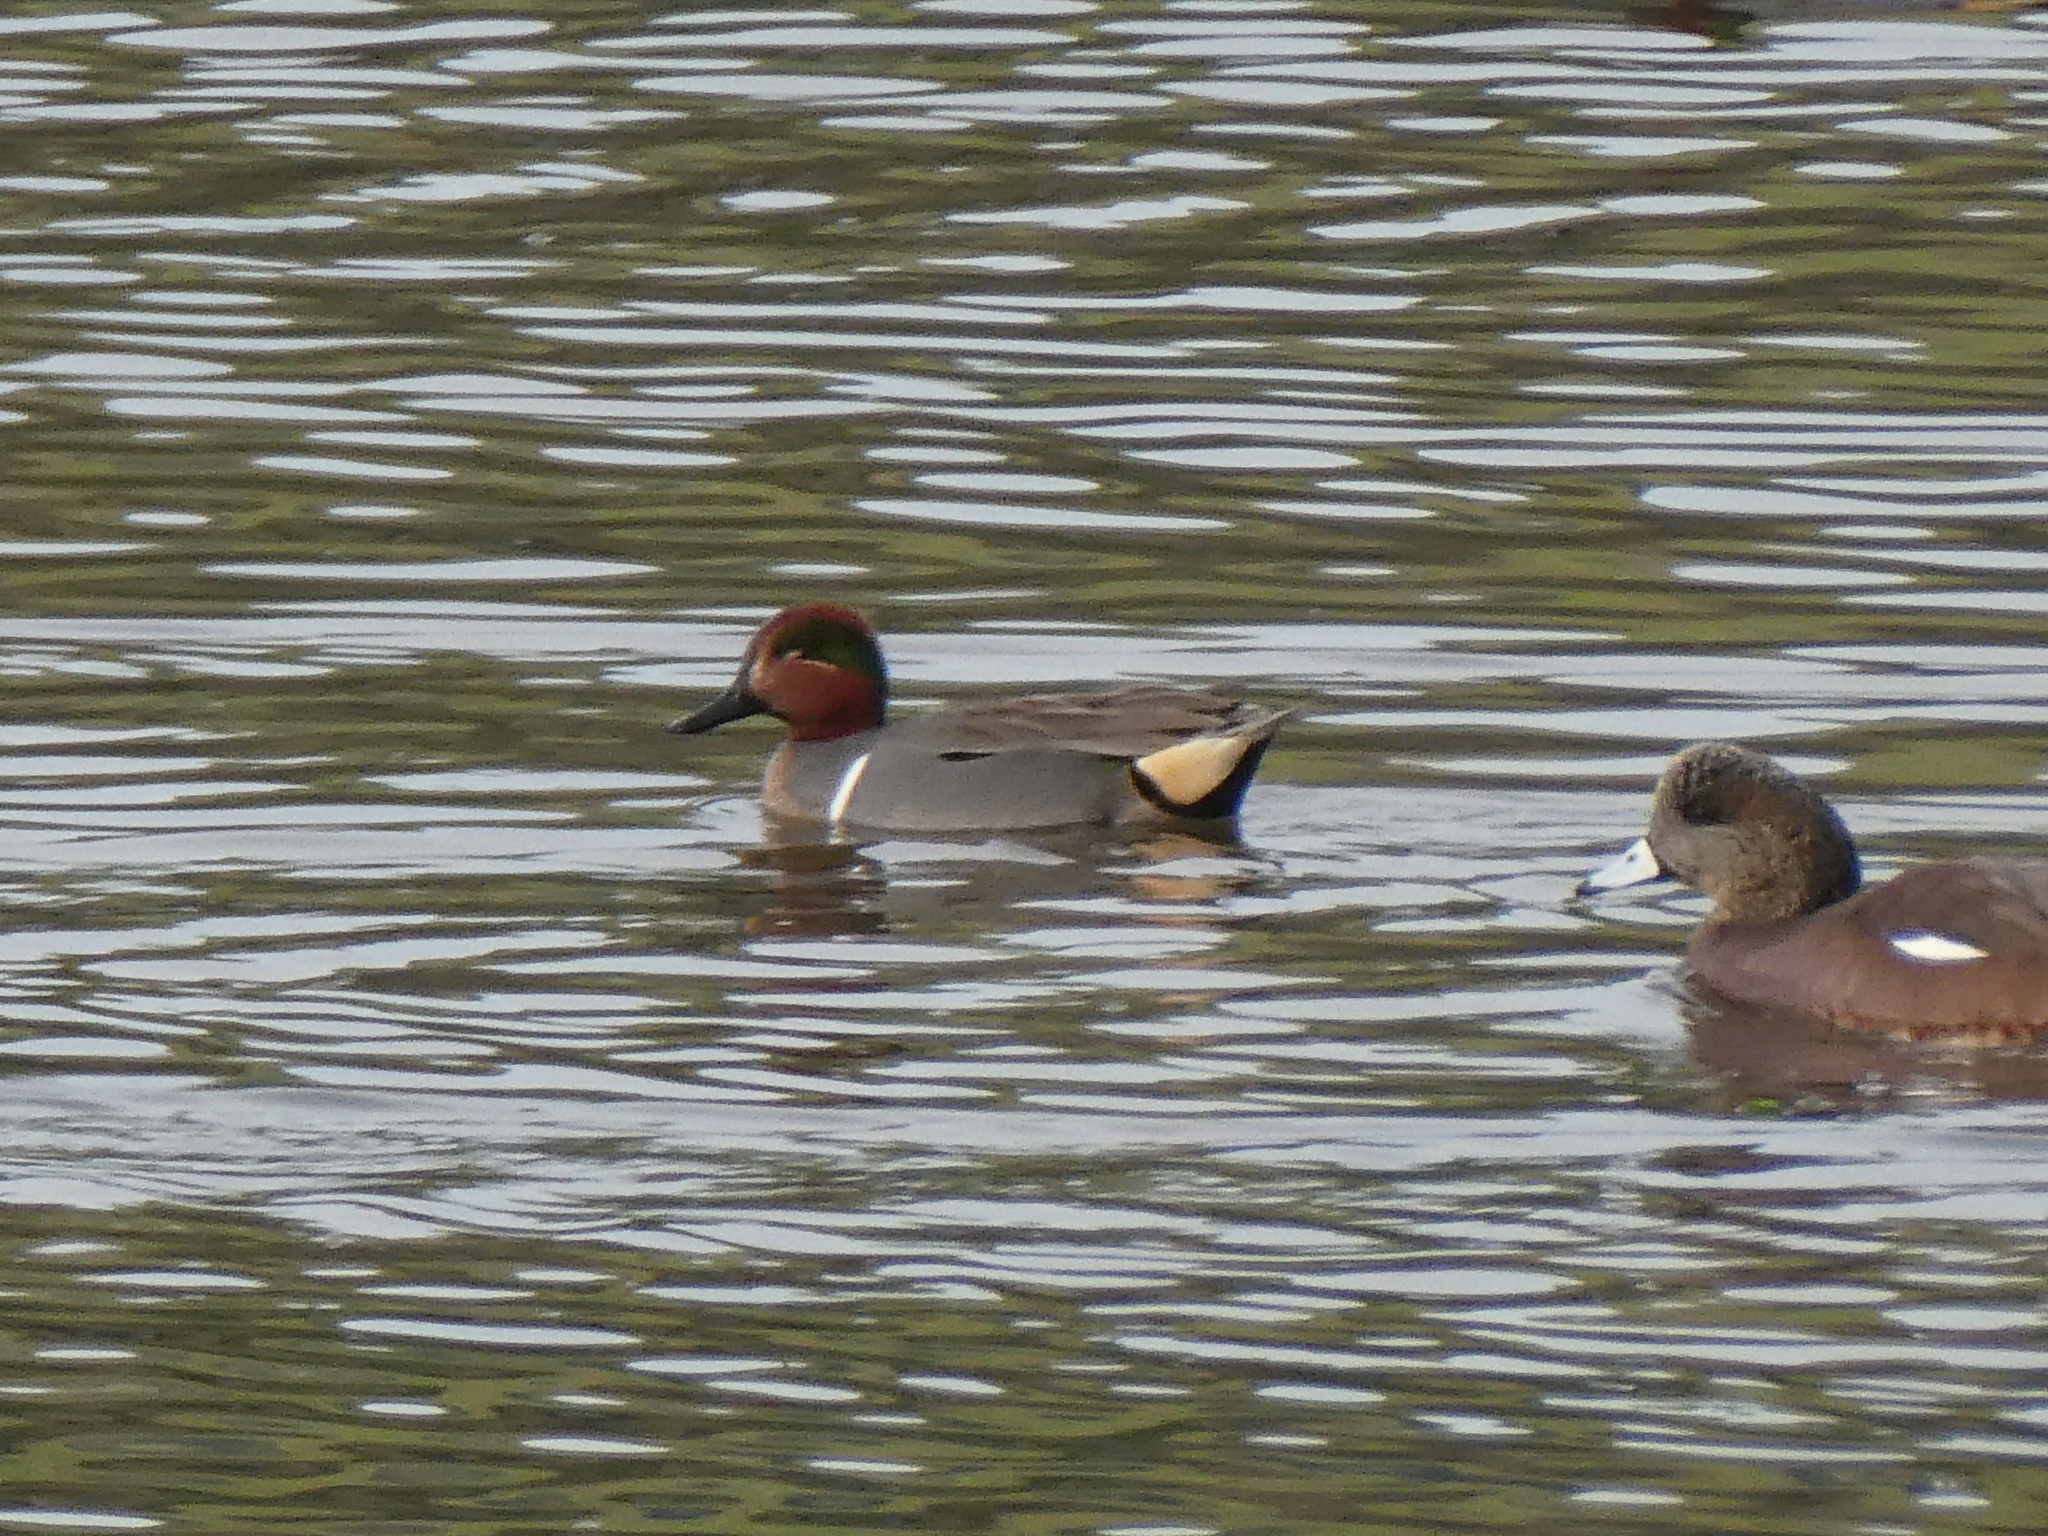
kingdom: Animalia
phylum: Chordata
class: Aves
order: Anseriformes
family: Anatidae
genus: Anas
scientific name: Anas carolinensis
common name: Green-winged teal
